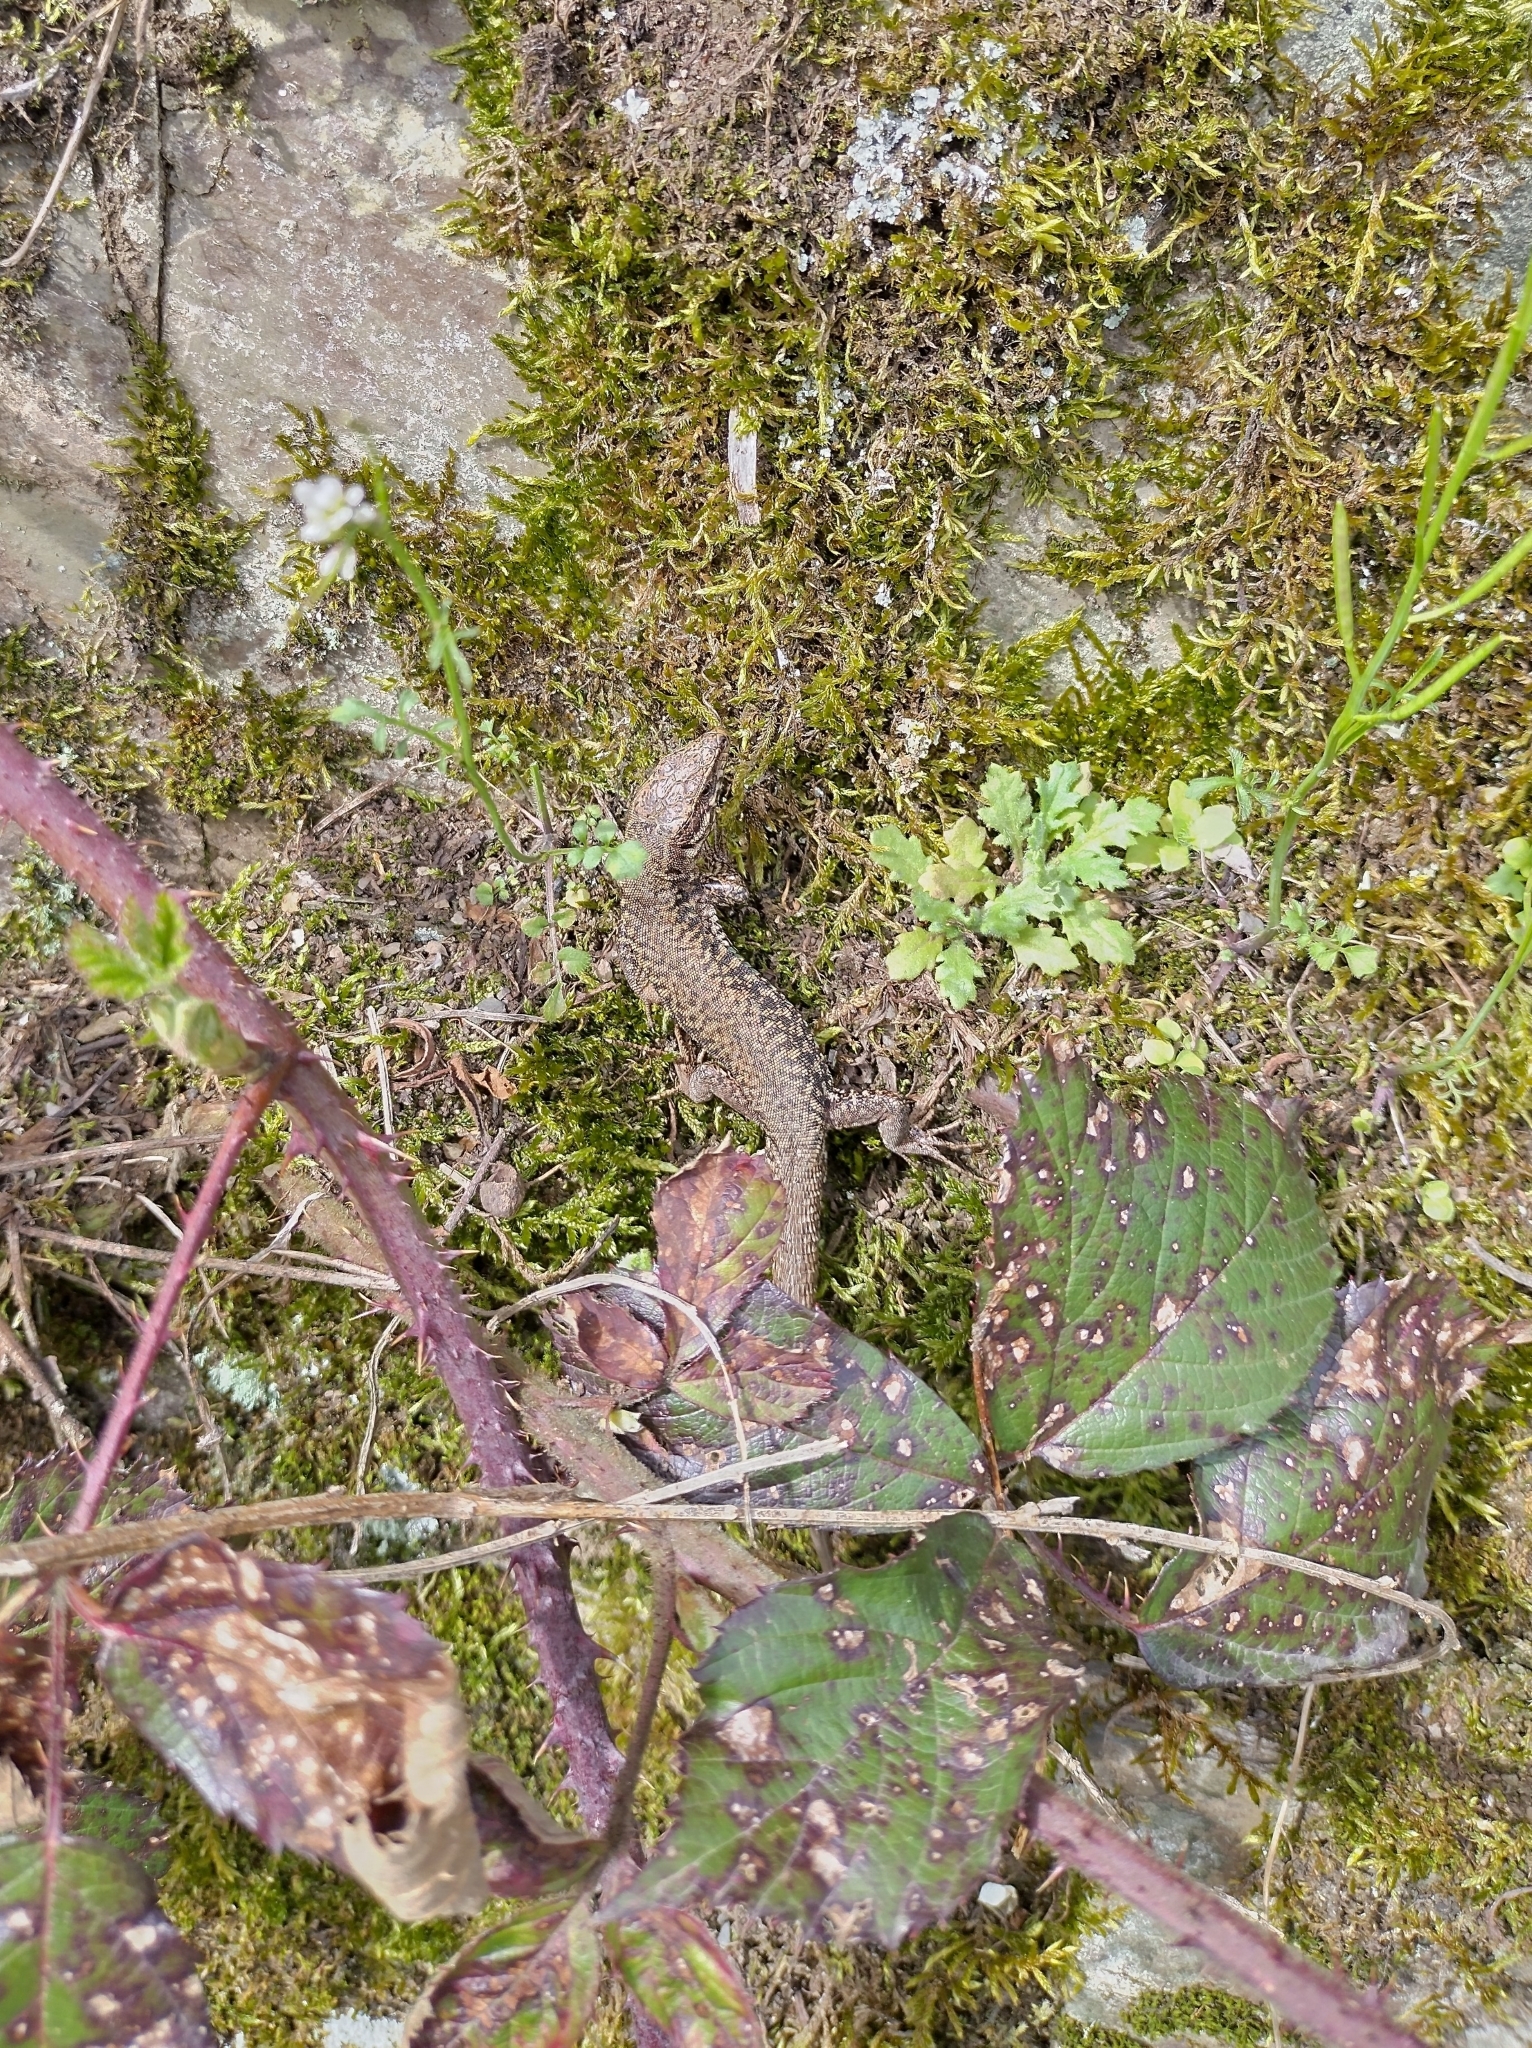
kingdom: Animalia
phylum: Chordata
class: Squamata
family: Lacertidae
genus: Podarcis
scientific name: Podarcis muralis
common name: Common wall lizard
